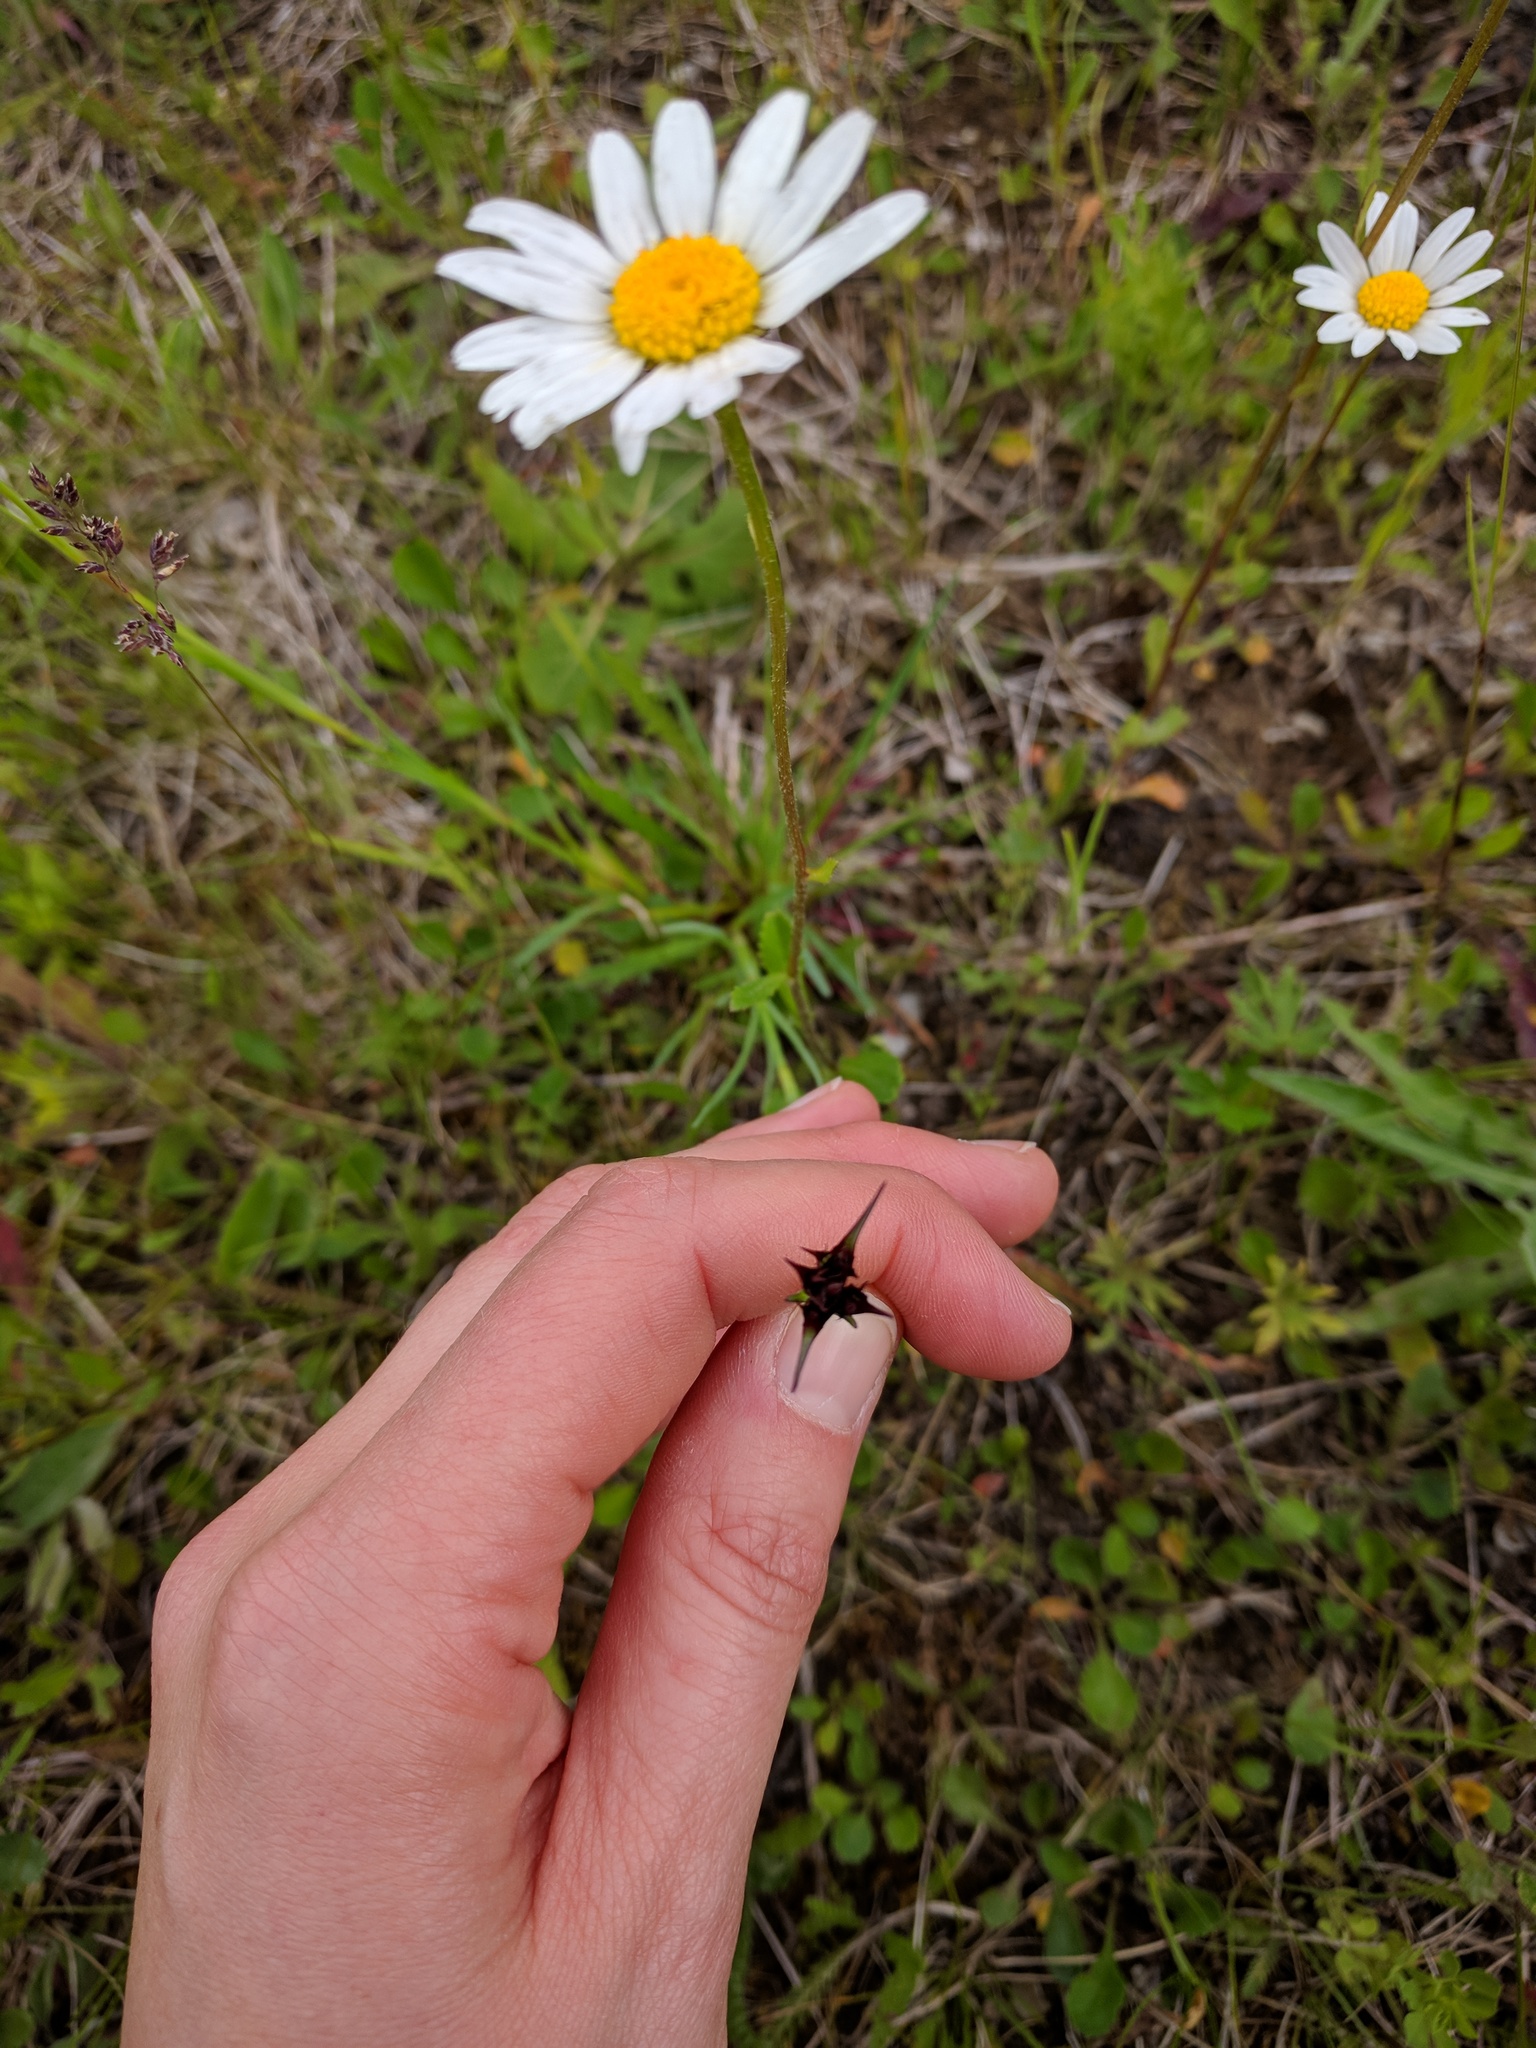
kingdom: Plantae
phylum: Tracheophyta
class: Magnoliopsida
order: Caryophyllales
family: Caryophyllaceae
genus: Dianthus
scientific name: Dianthus carthusianorum
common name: Carthusian pink
